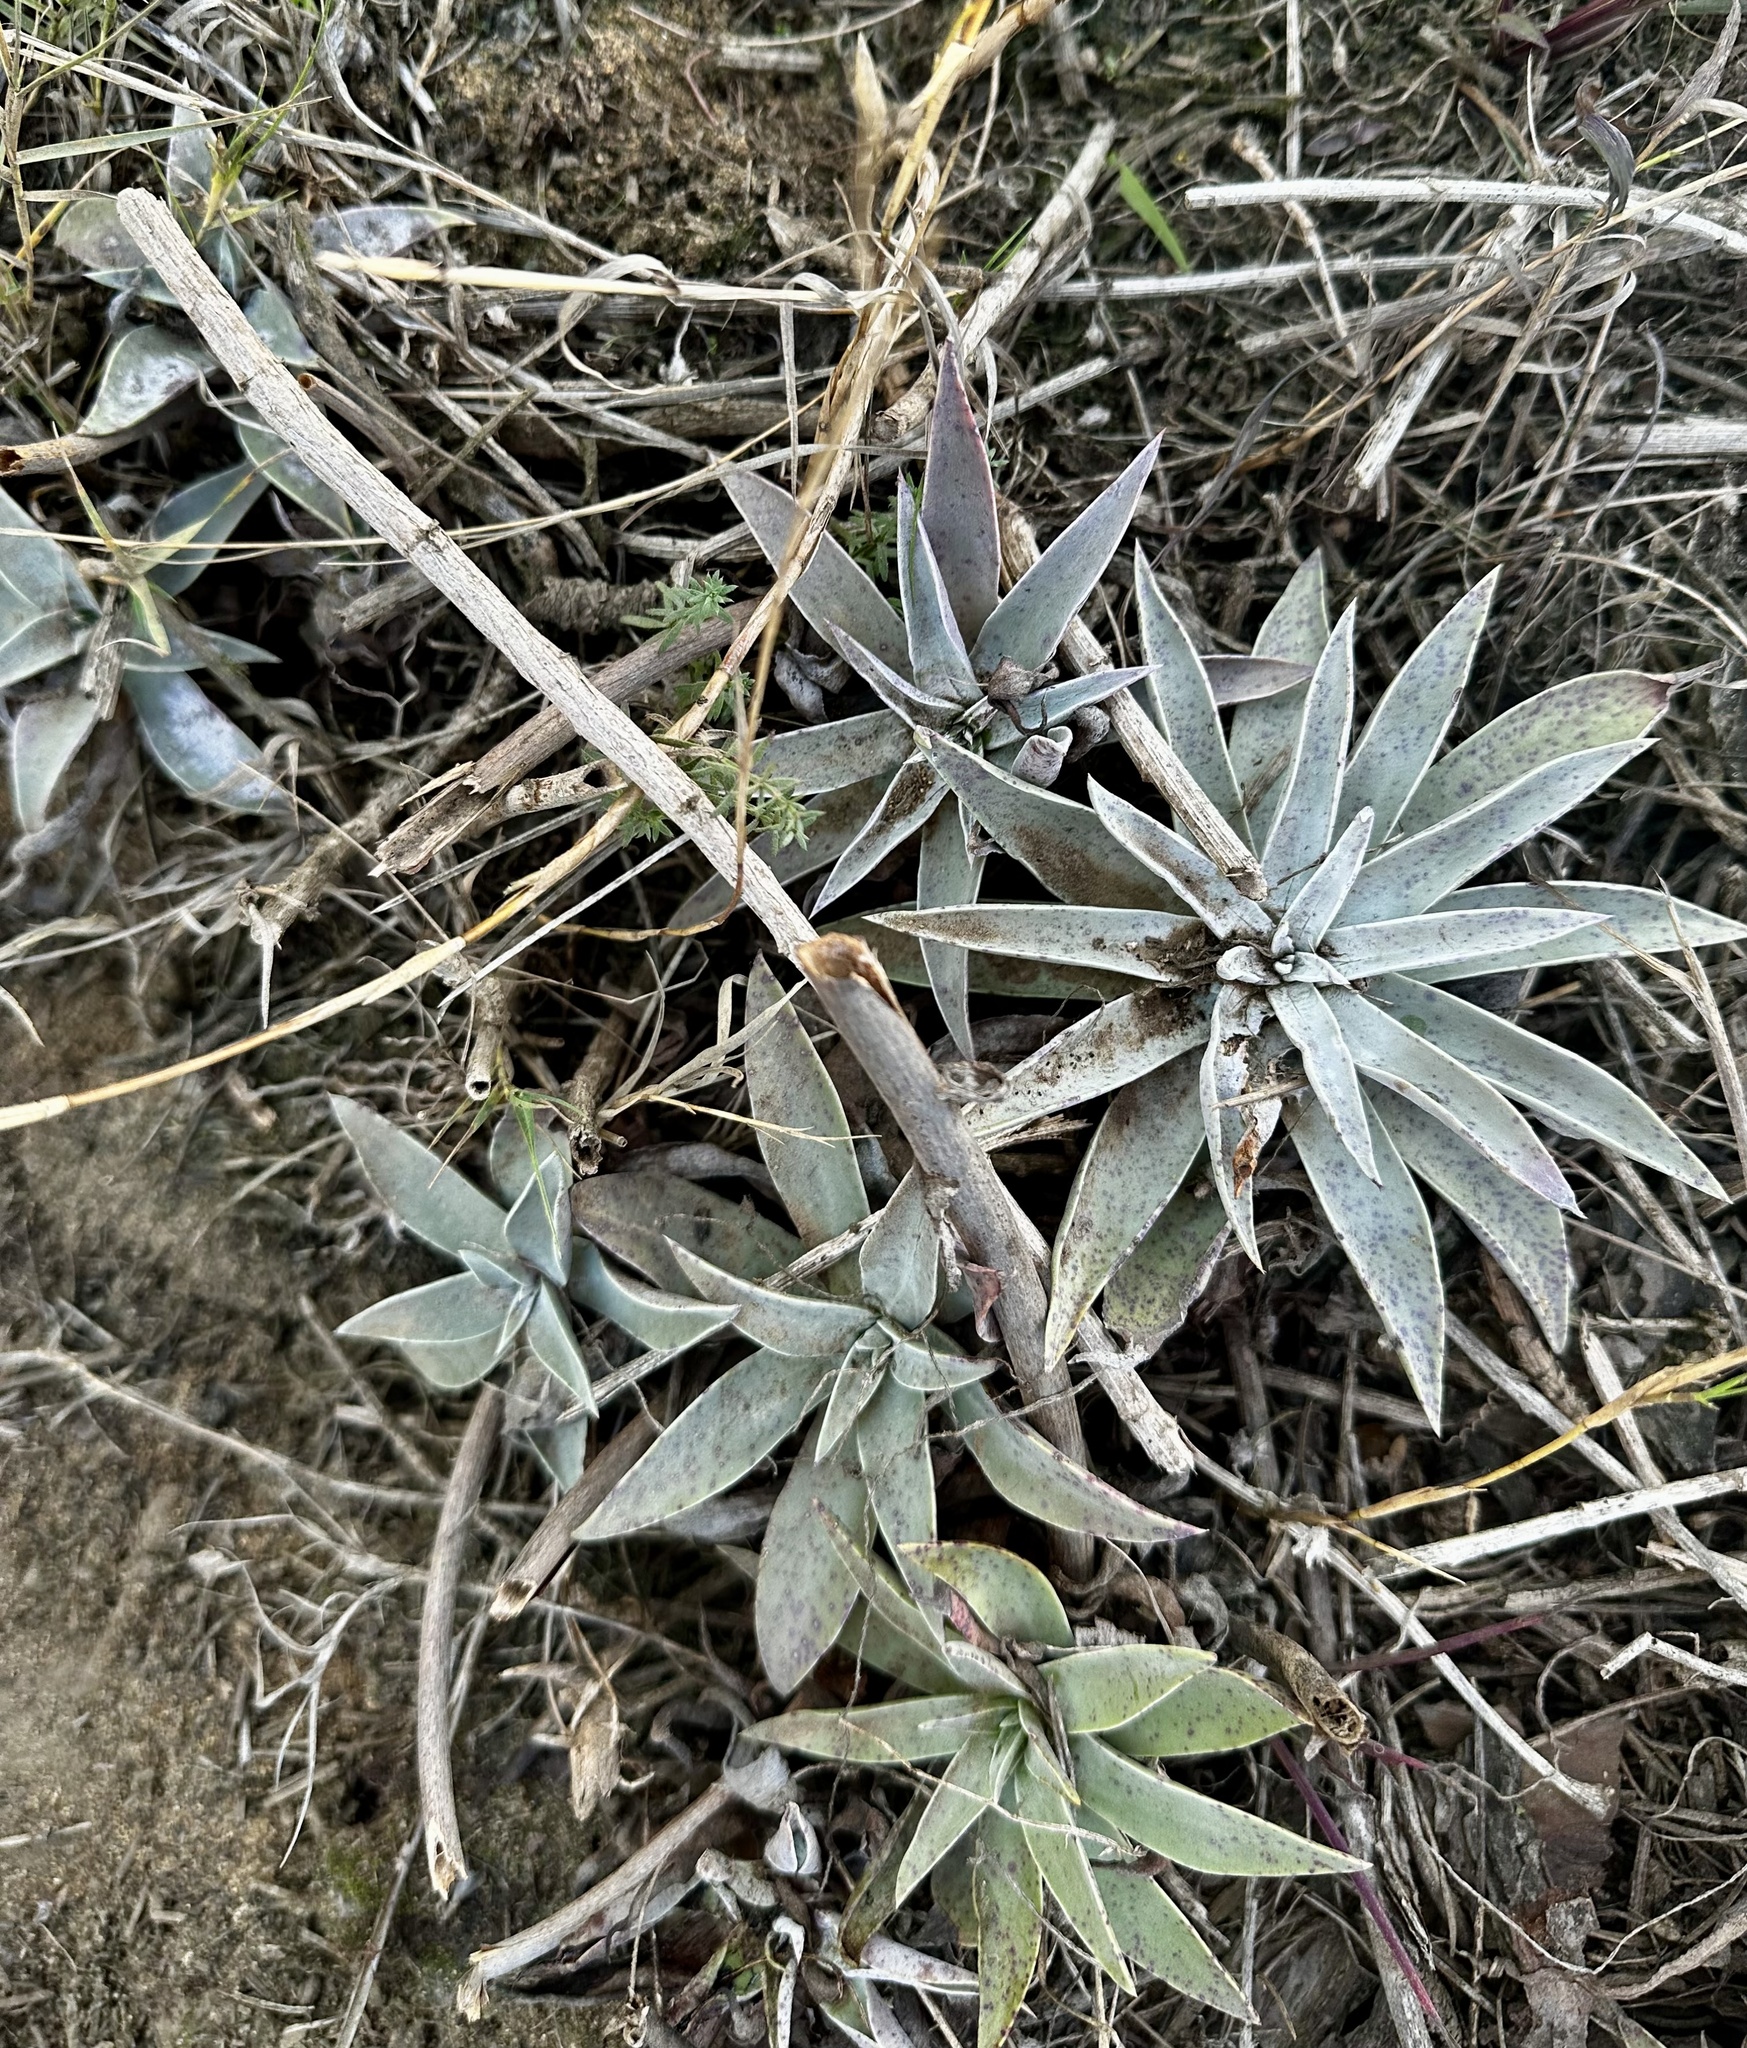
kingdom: Plantae
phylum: Tracheophyta
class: Magnoliopsida
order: Saxifragales
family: Crassulaceae
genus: Dudleya
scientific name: Dudleya lanceolata
